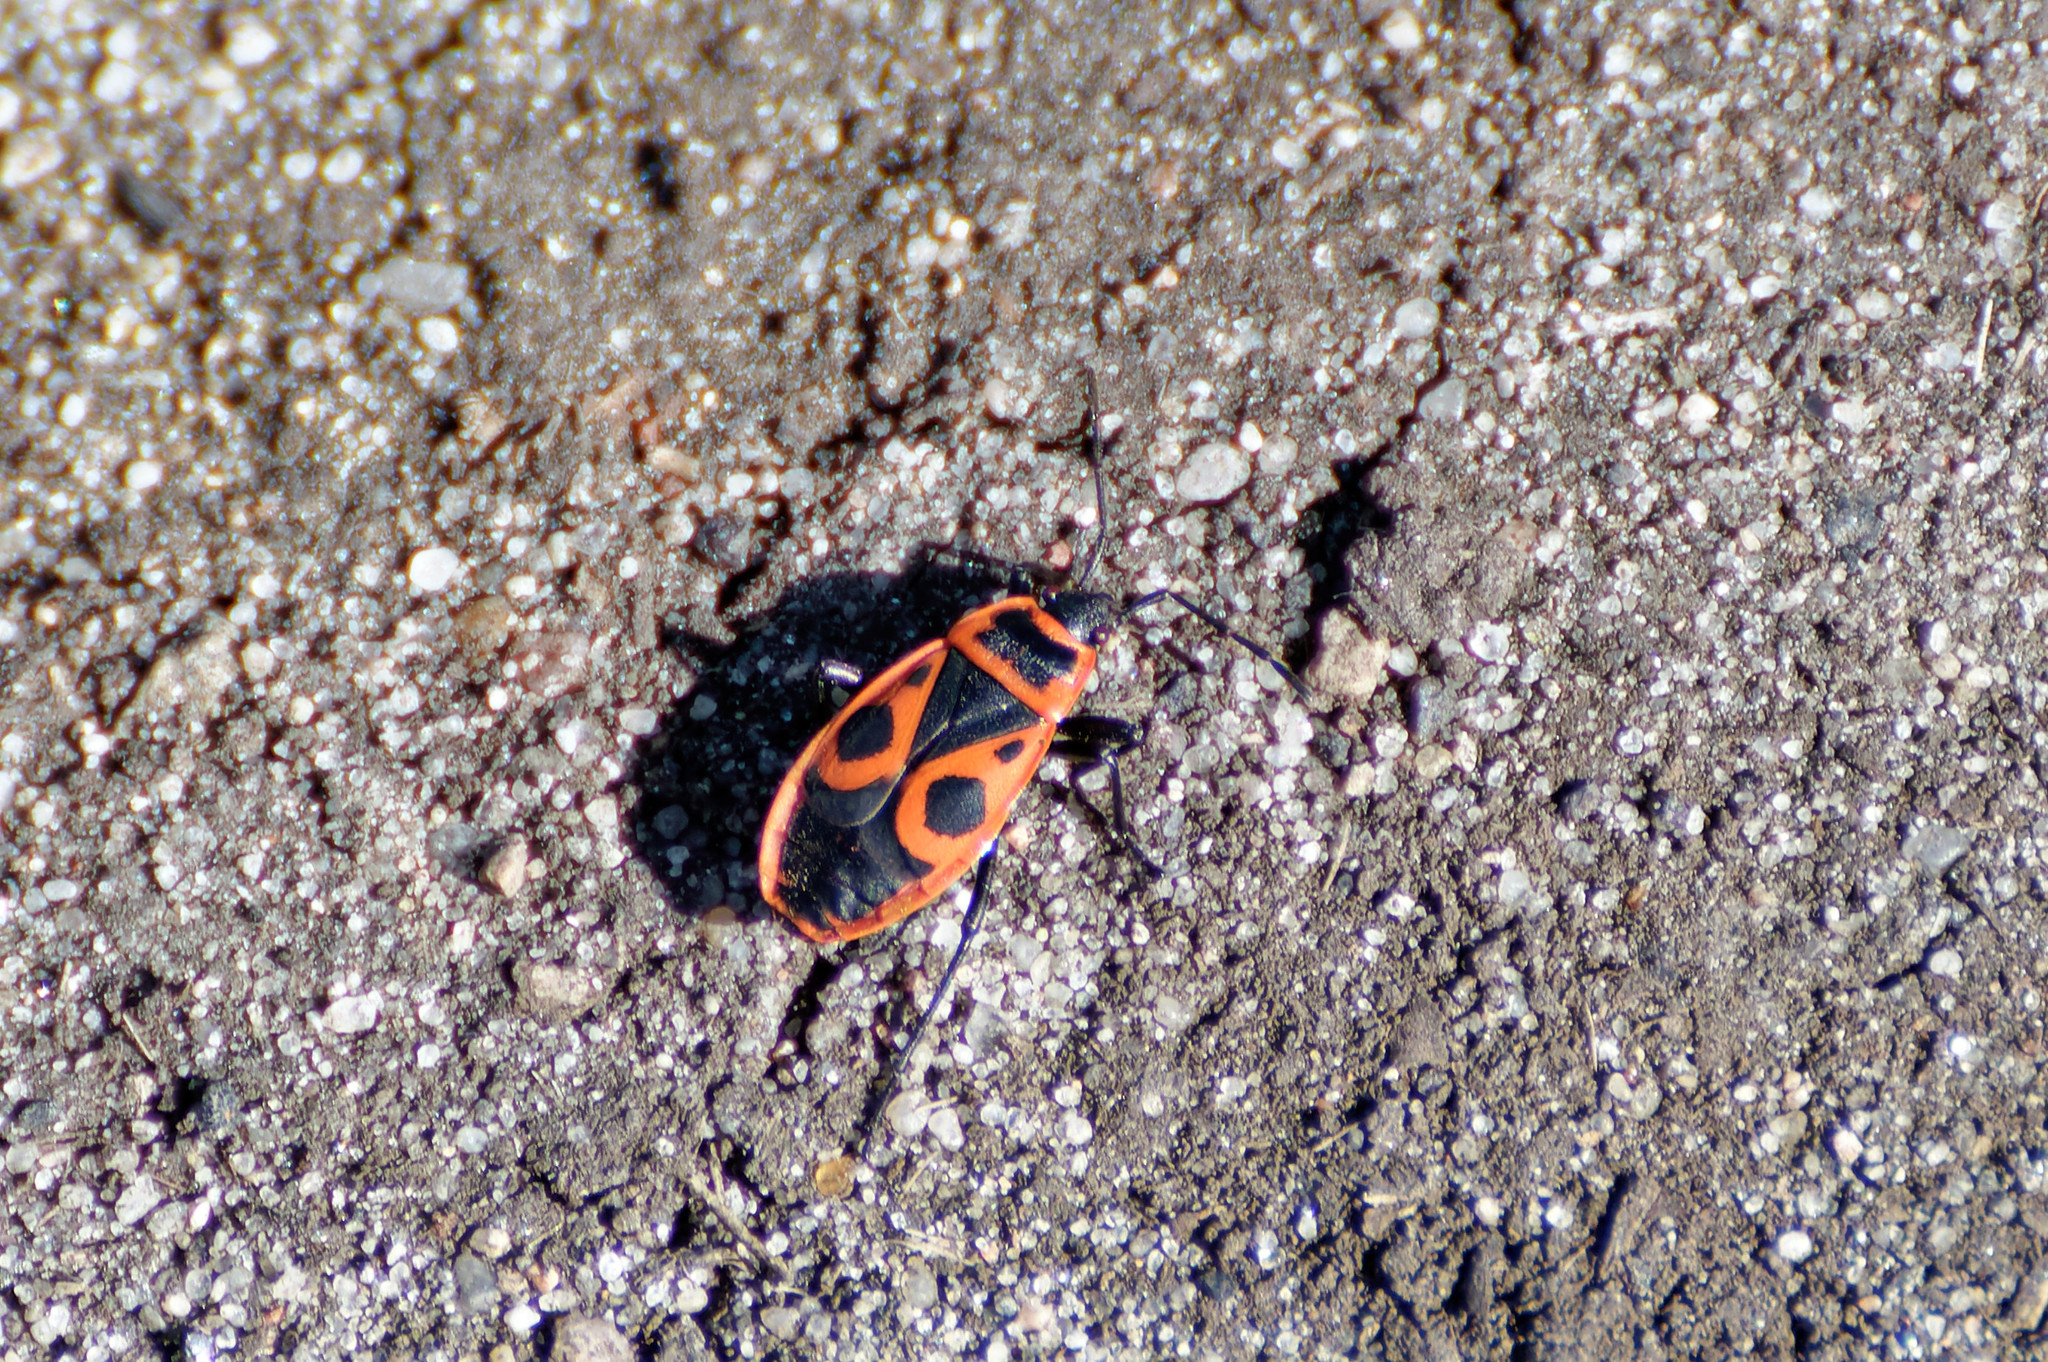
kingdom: Animalia
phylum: Arthropoda
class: Insecta
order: Hemiptera
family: Pyrrhocoridae
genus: Pyrrhocoris
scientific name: Pyrrhocoris apterus
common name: Firebug
